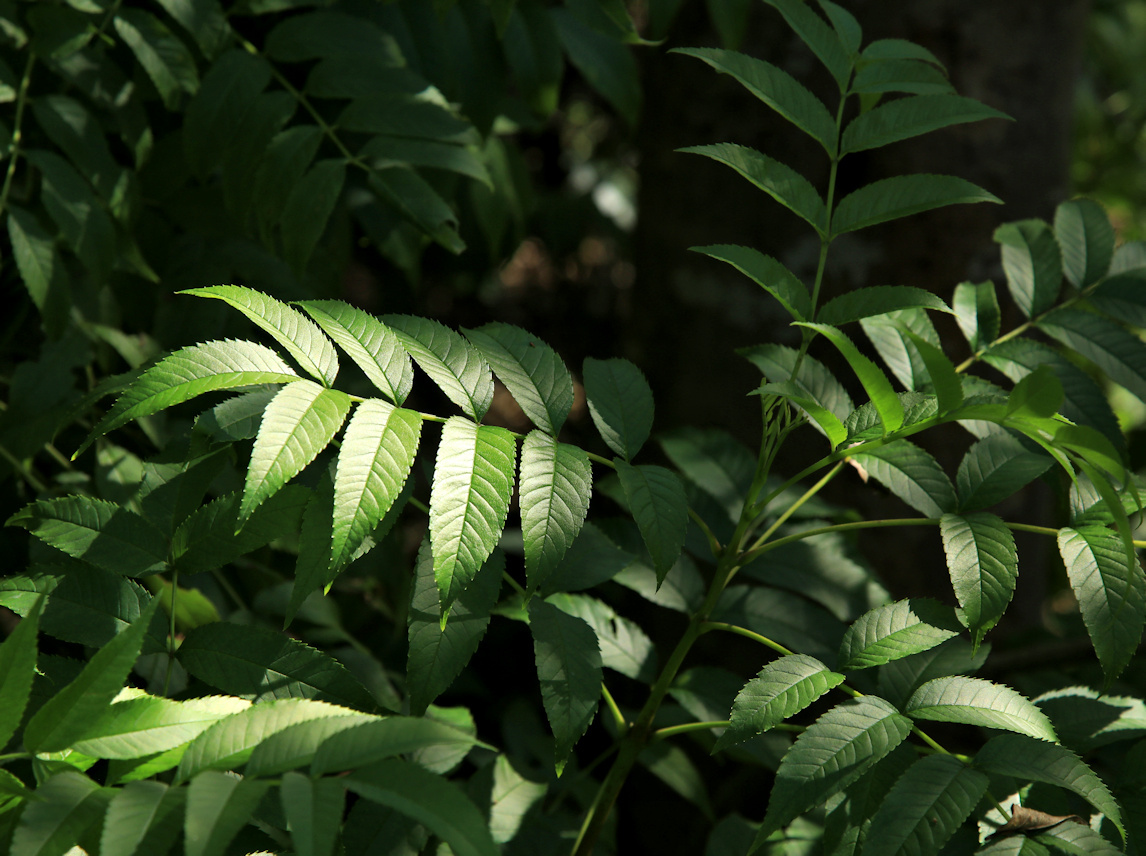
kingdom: Plantae
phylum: Tracheophyta
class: Magnoliopsida
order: Lamiales
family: Bignoniaceae
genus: Tecoma
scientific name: Tecoma stans
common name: Yellow trumpetbush
